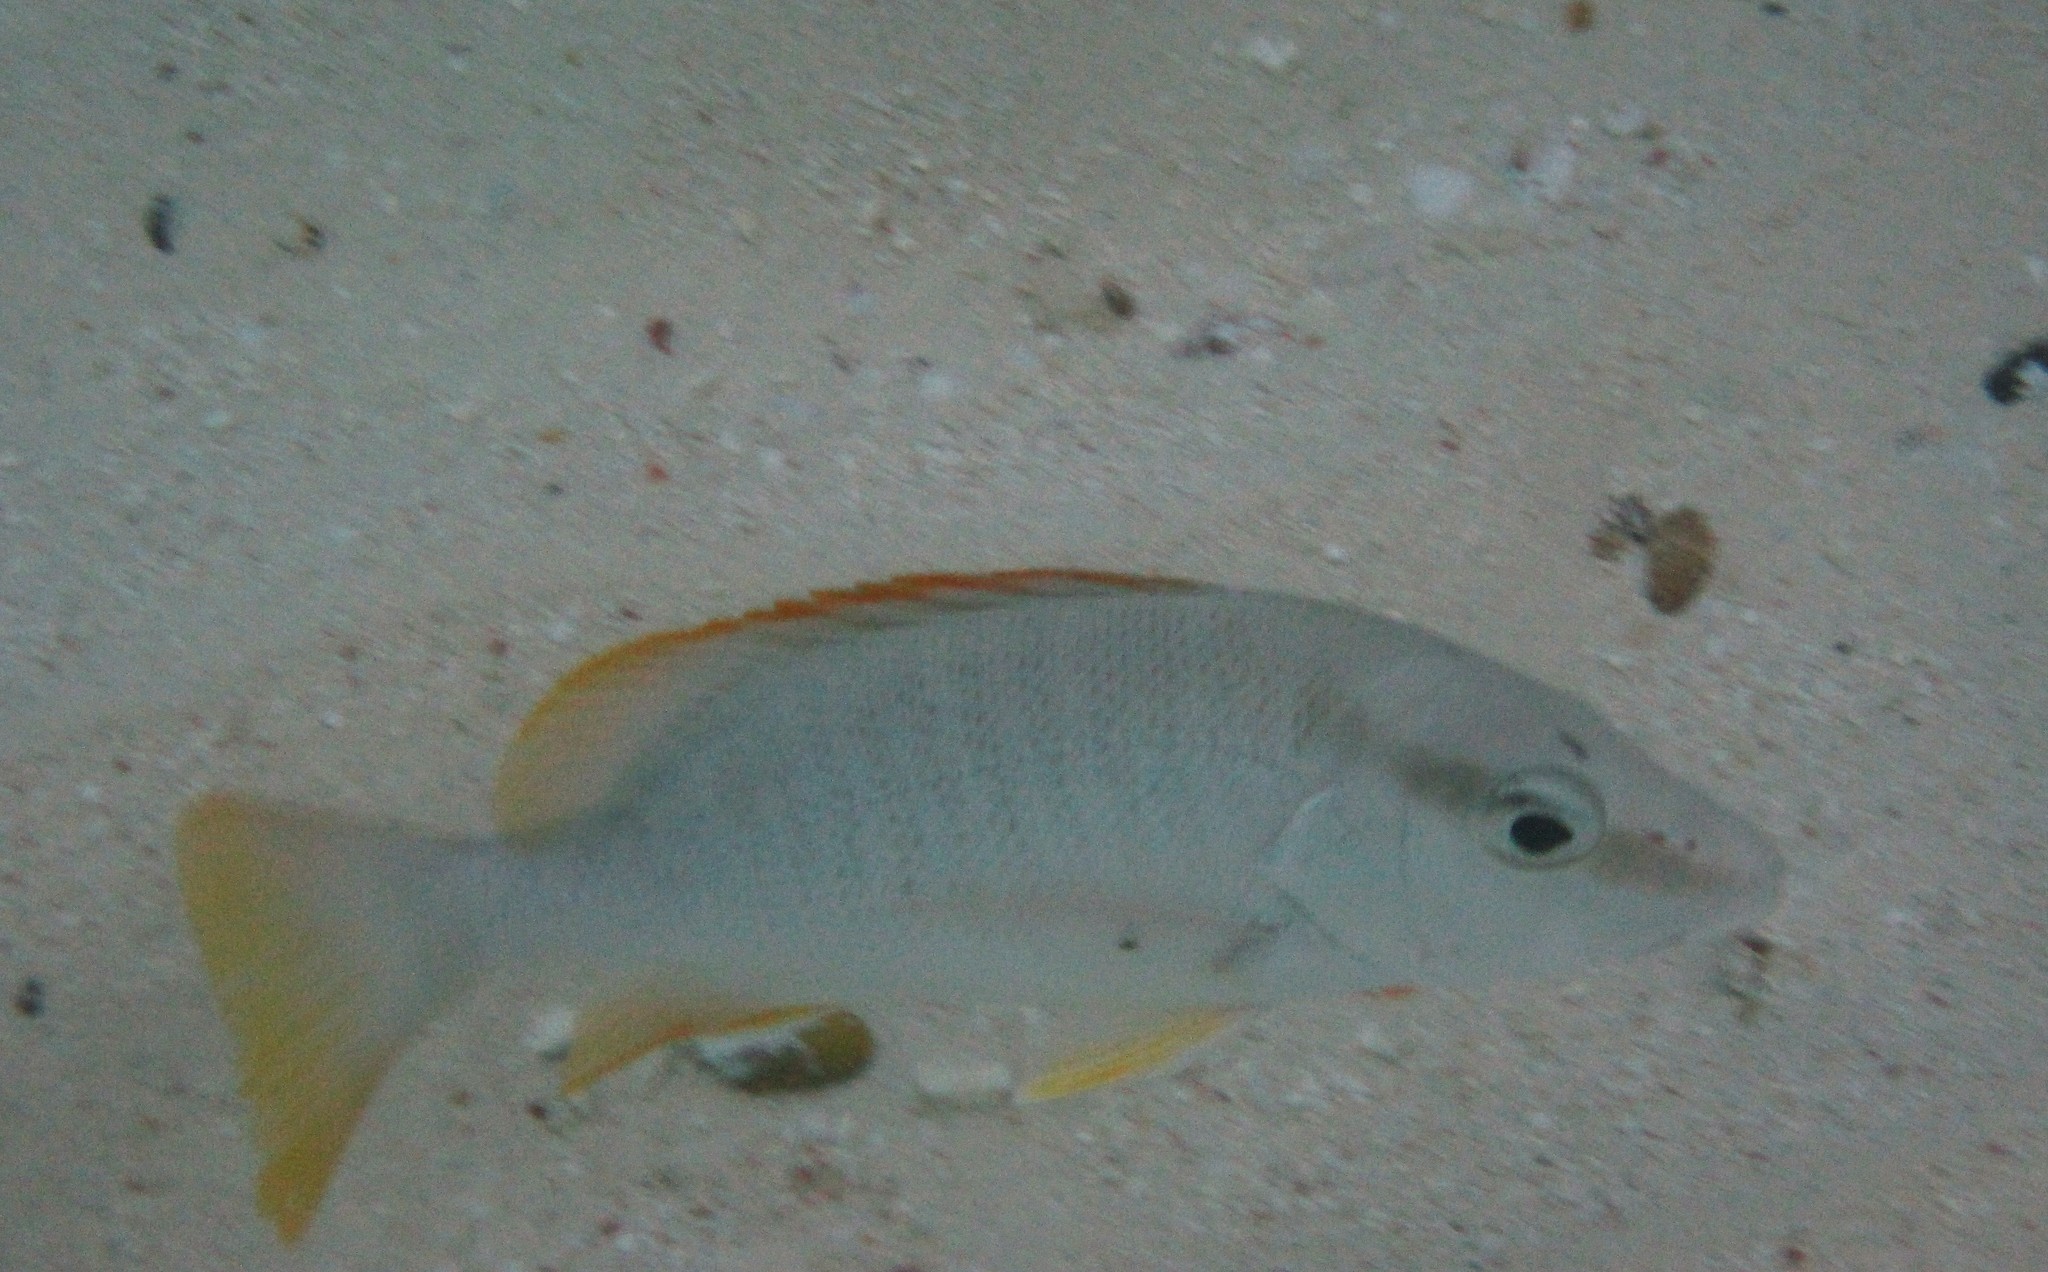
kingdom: Animalia
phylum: Chordata
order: Perciformes
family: Lutjanidae
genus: Lutjanus
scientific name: Lutjanus apodus
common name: Schoolmaster
